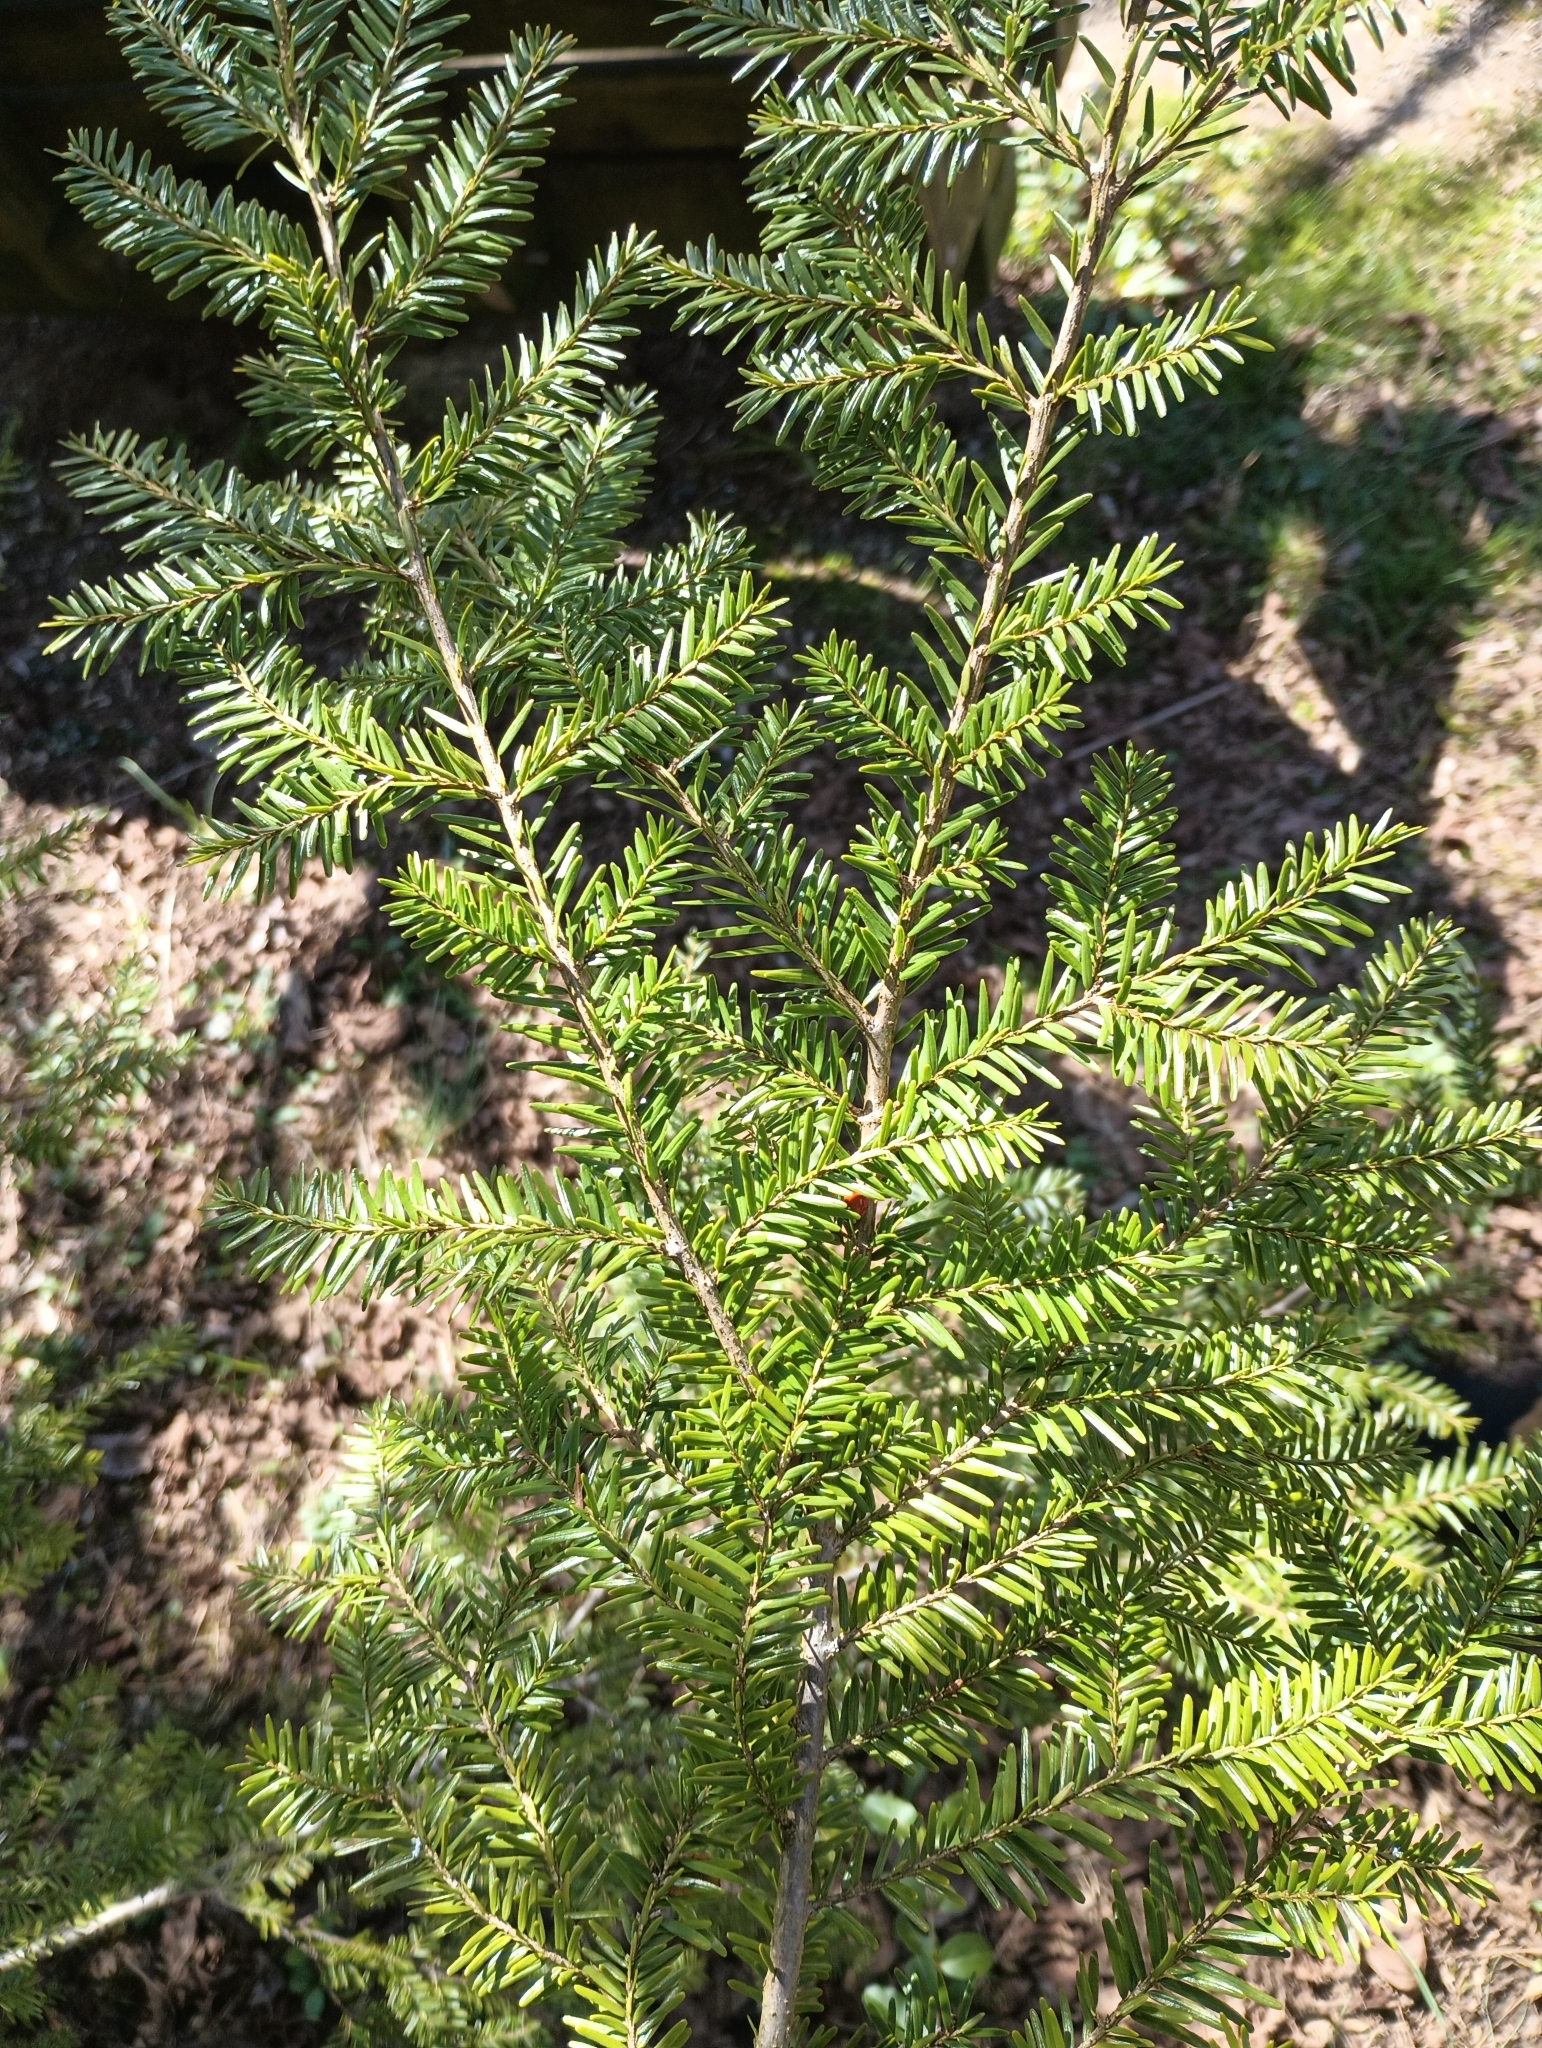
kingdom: Plantae
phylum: Tracheophyta
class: Pinopsida
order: Pinales
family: Pinaceae
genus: Tsuga
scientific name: Tsuga canadensis
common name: Eastern hemlock
